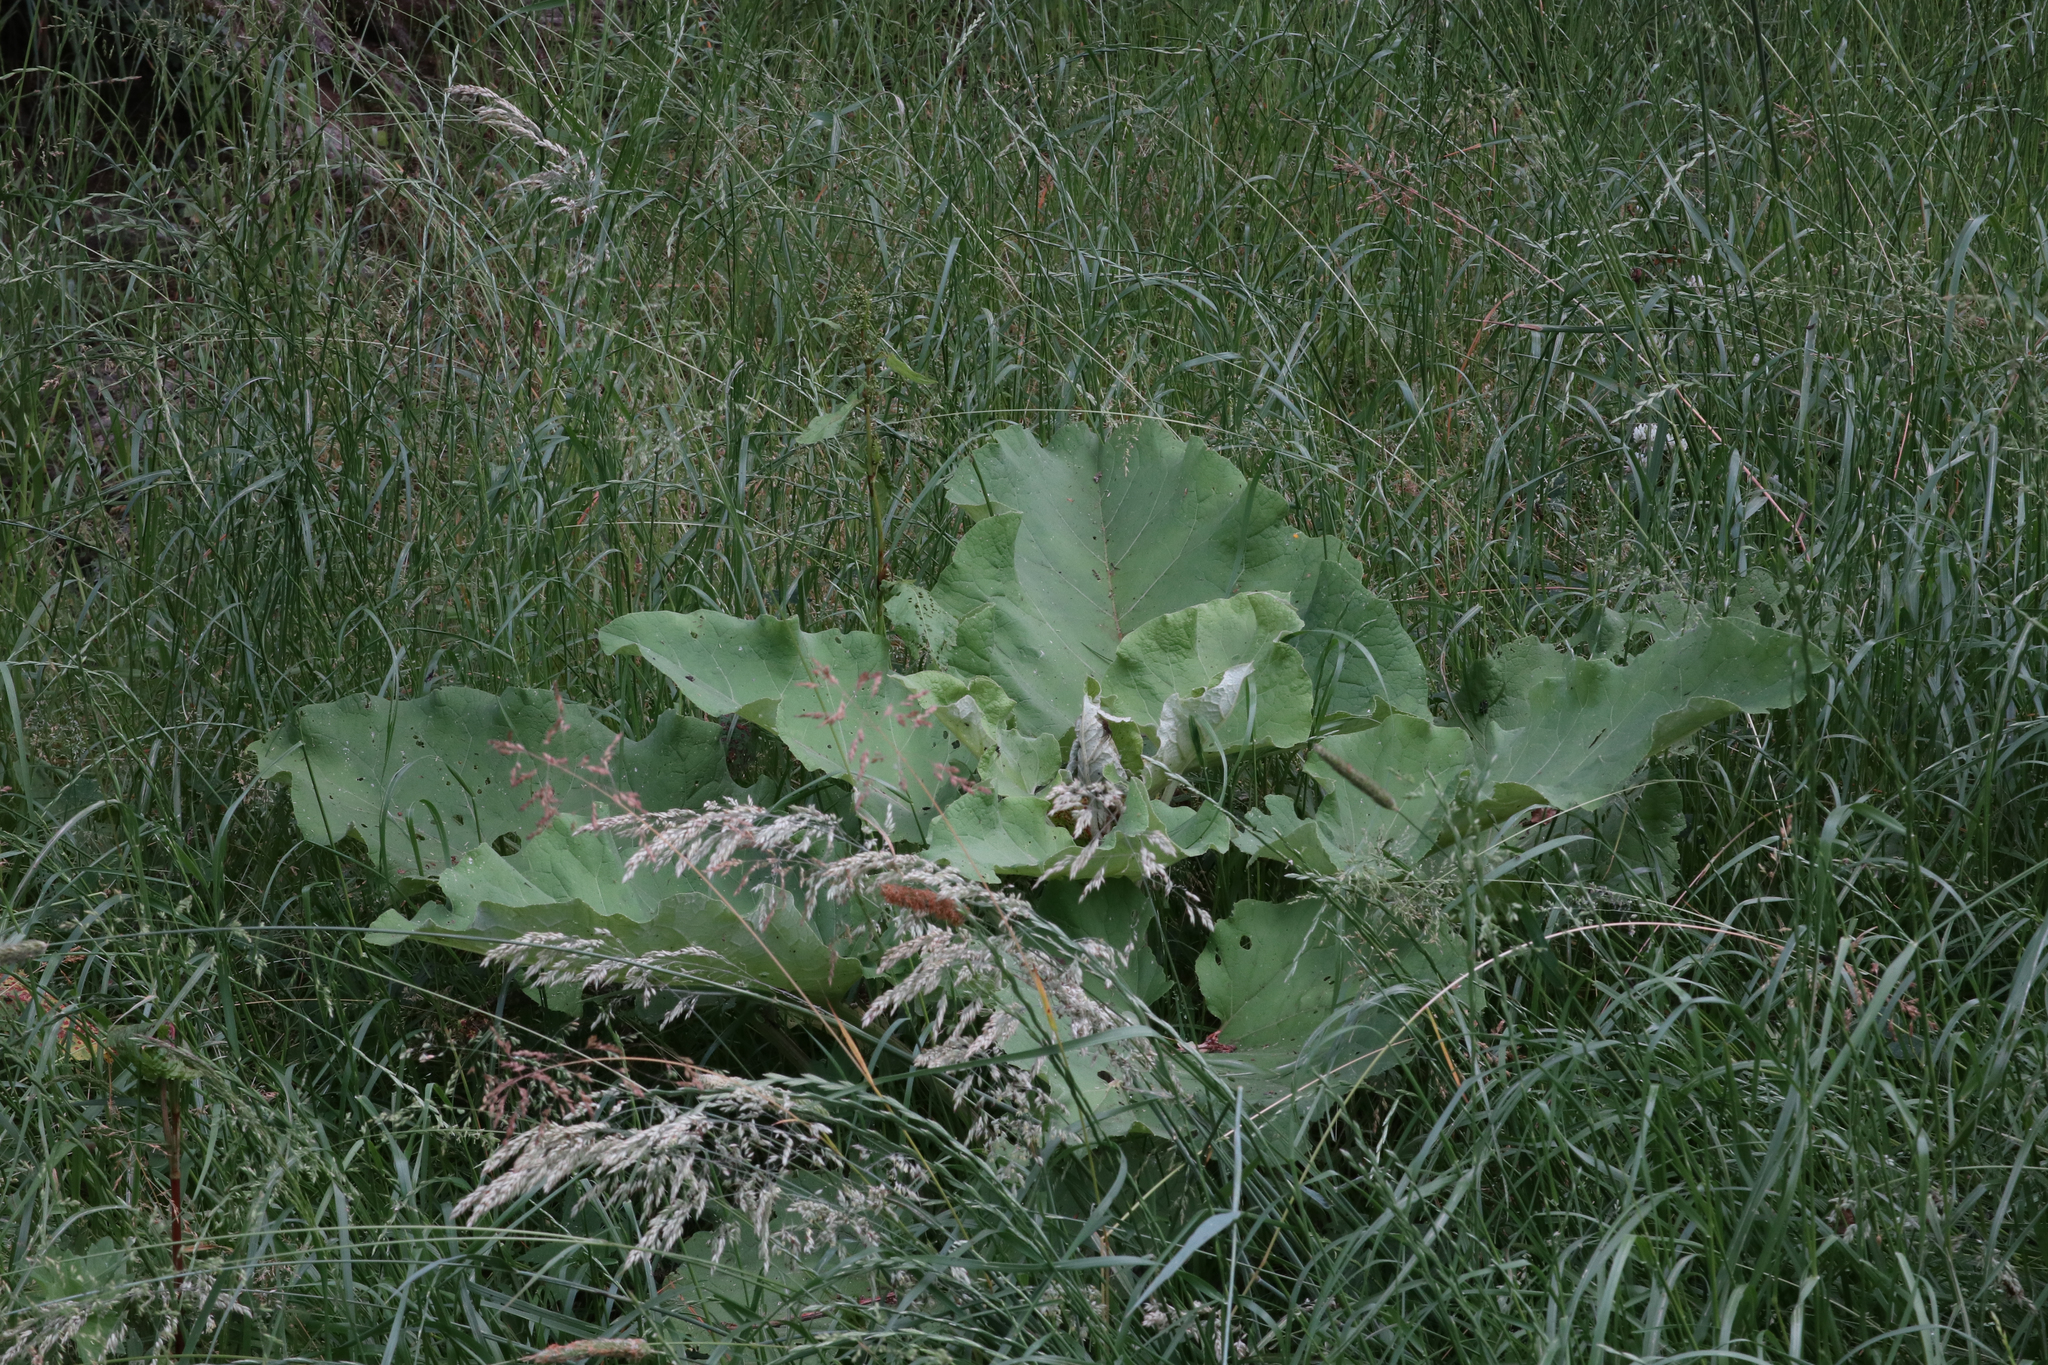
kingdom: Plantae
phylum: Tracheophyta
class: Magnoliopsida
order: Asterales
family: Asteraceae
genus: Arctium
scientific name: Arctium lappa
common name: Greater burdock
